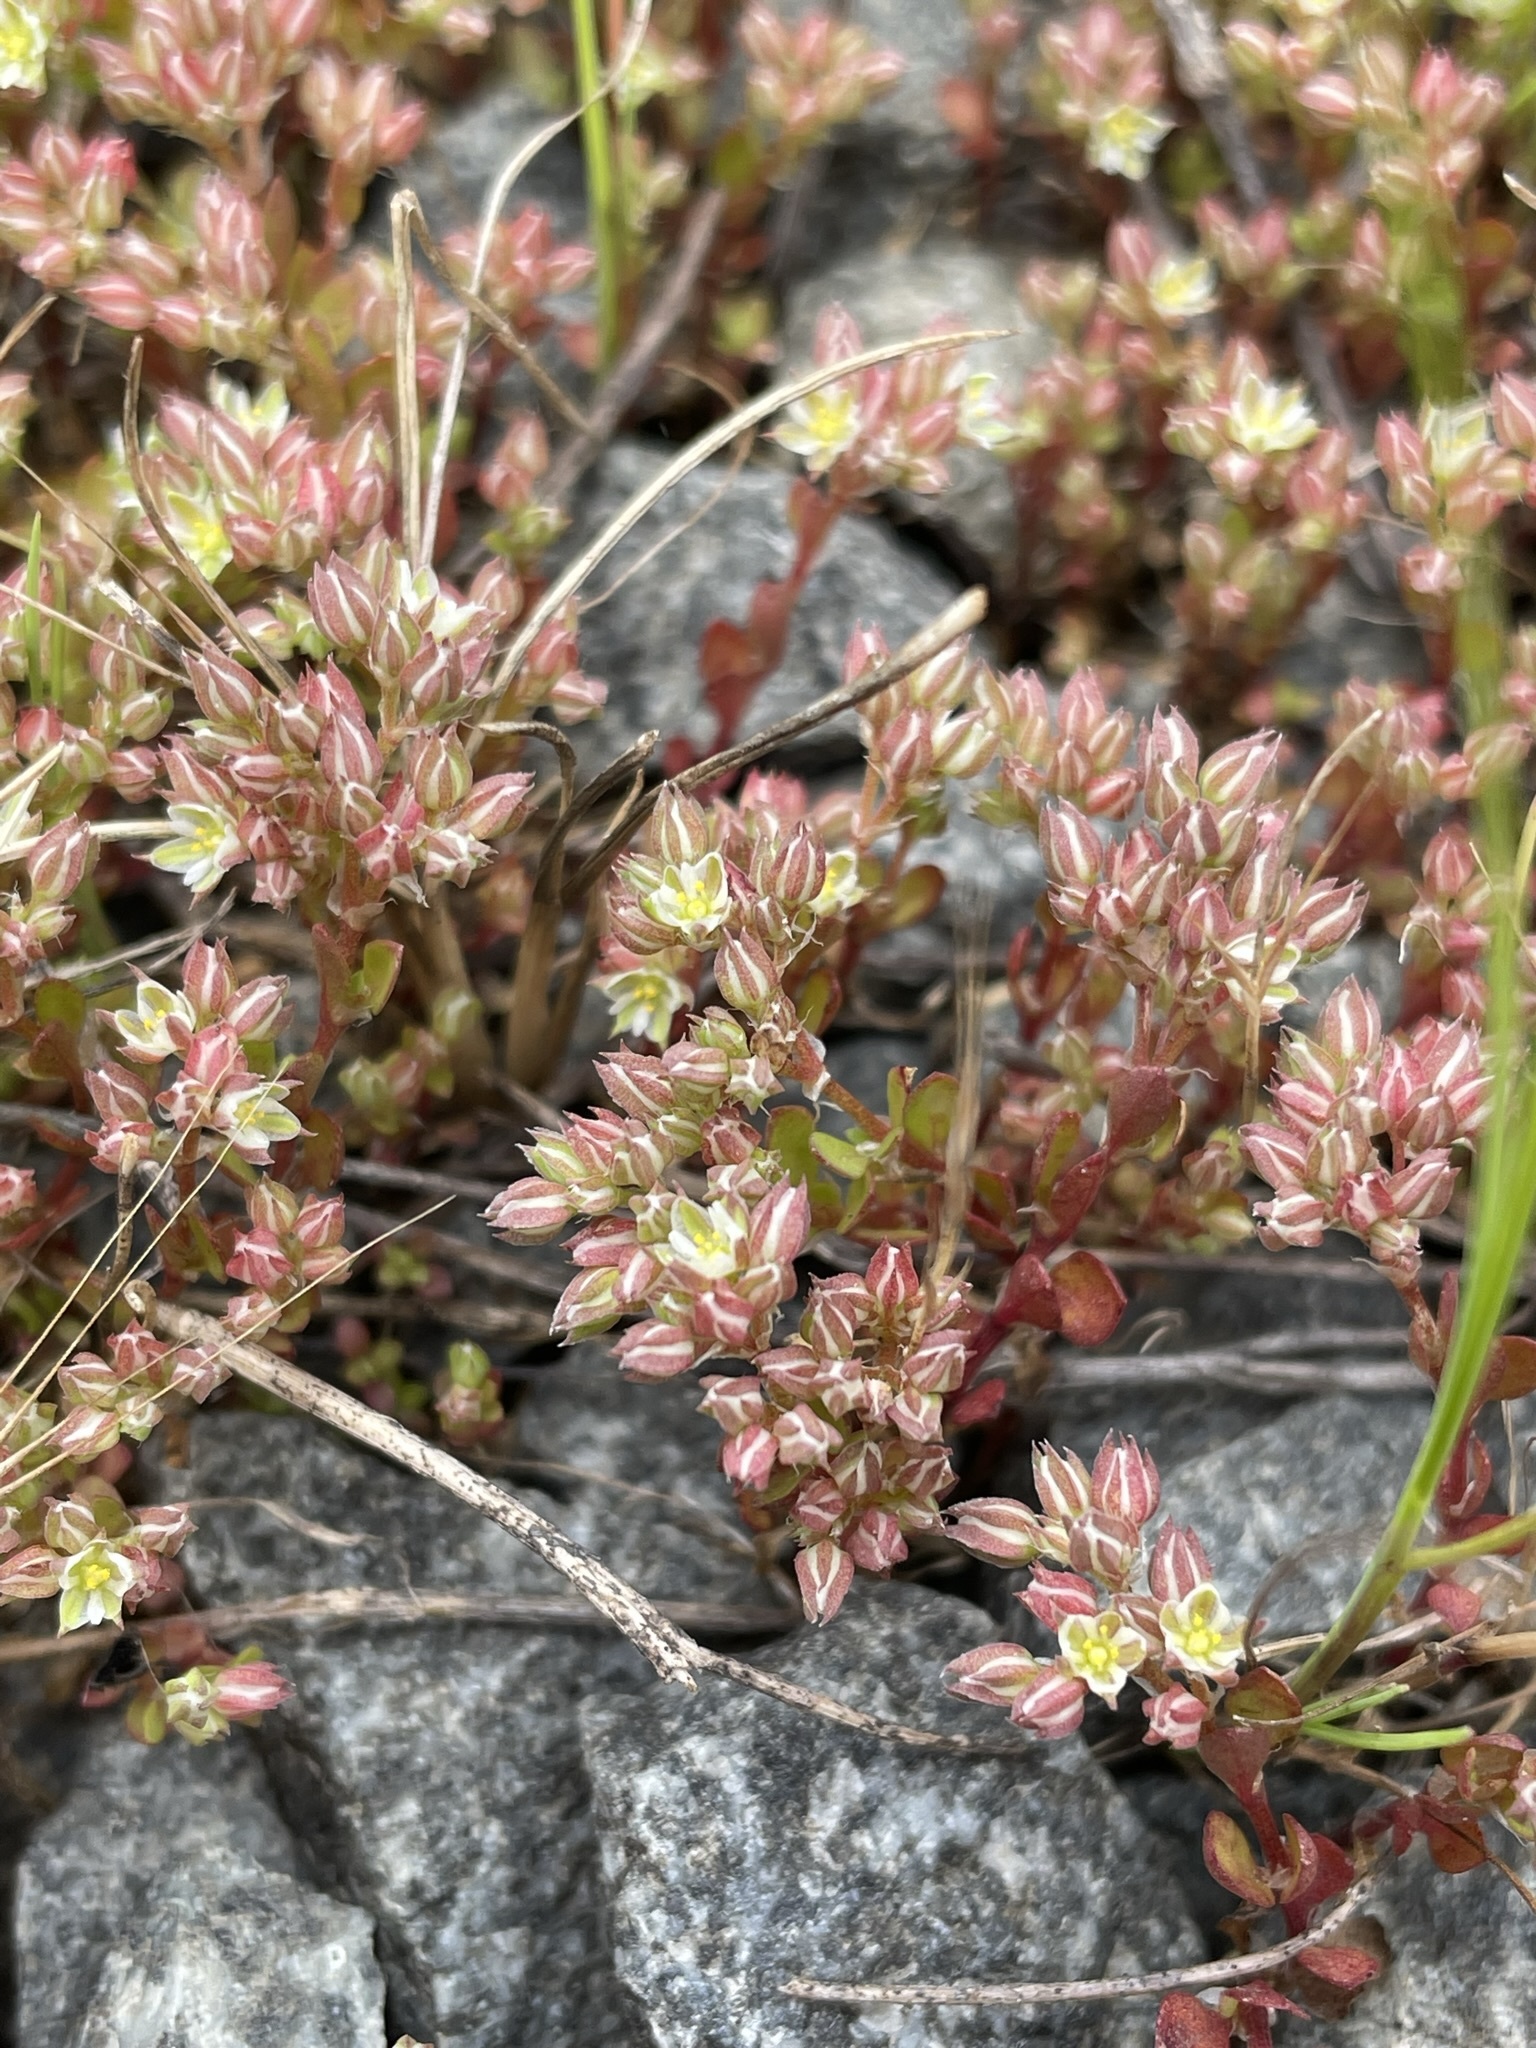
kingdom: Plantae
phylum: Tracheophyta
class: Magnoliopsida
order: Caryophyllales
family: Caryophyllaceae
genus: Polycarpon
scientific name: Polycarpon tetraphyllum
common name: Four-leaved all-seed
